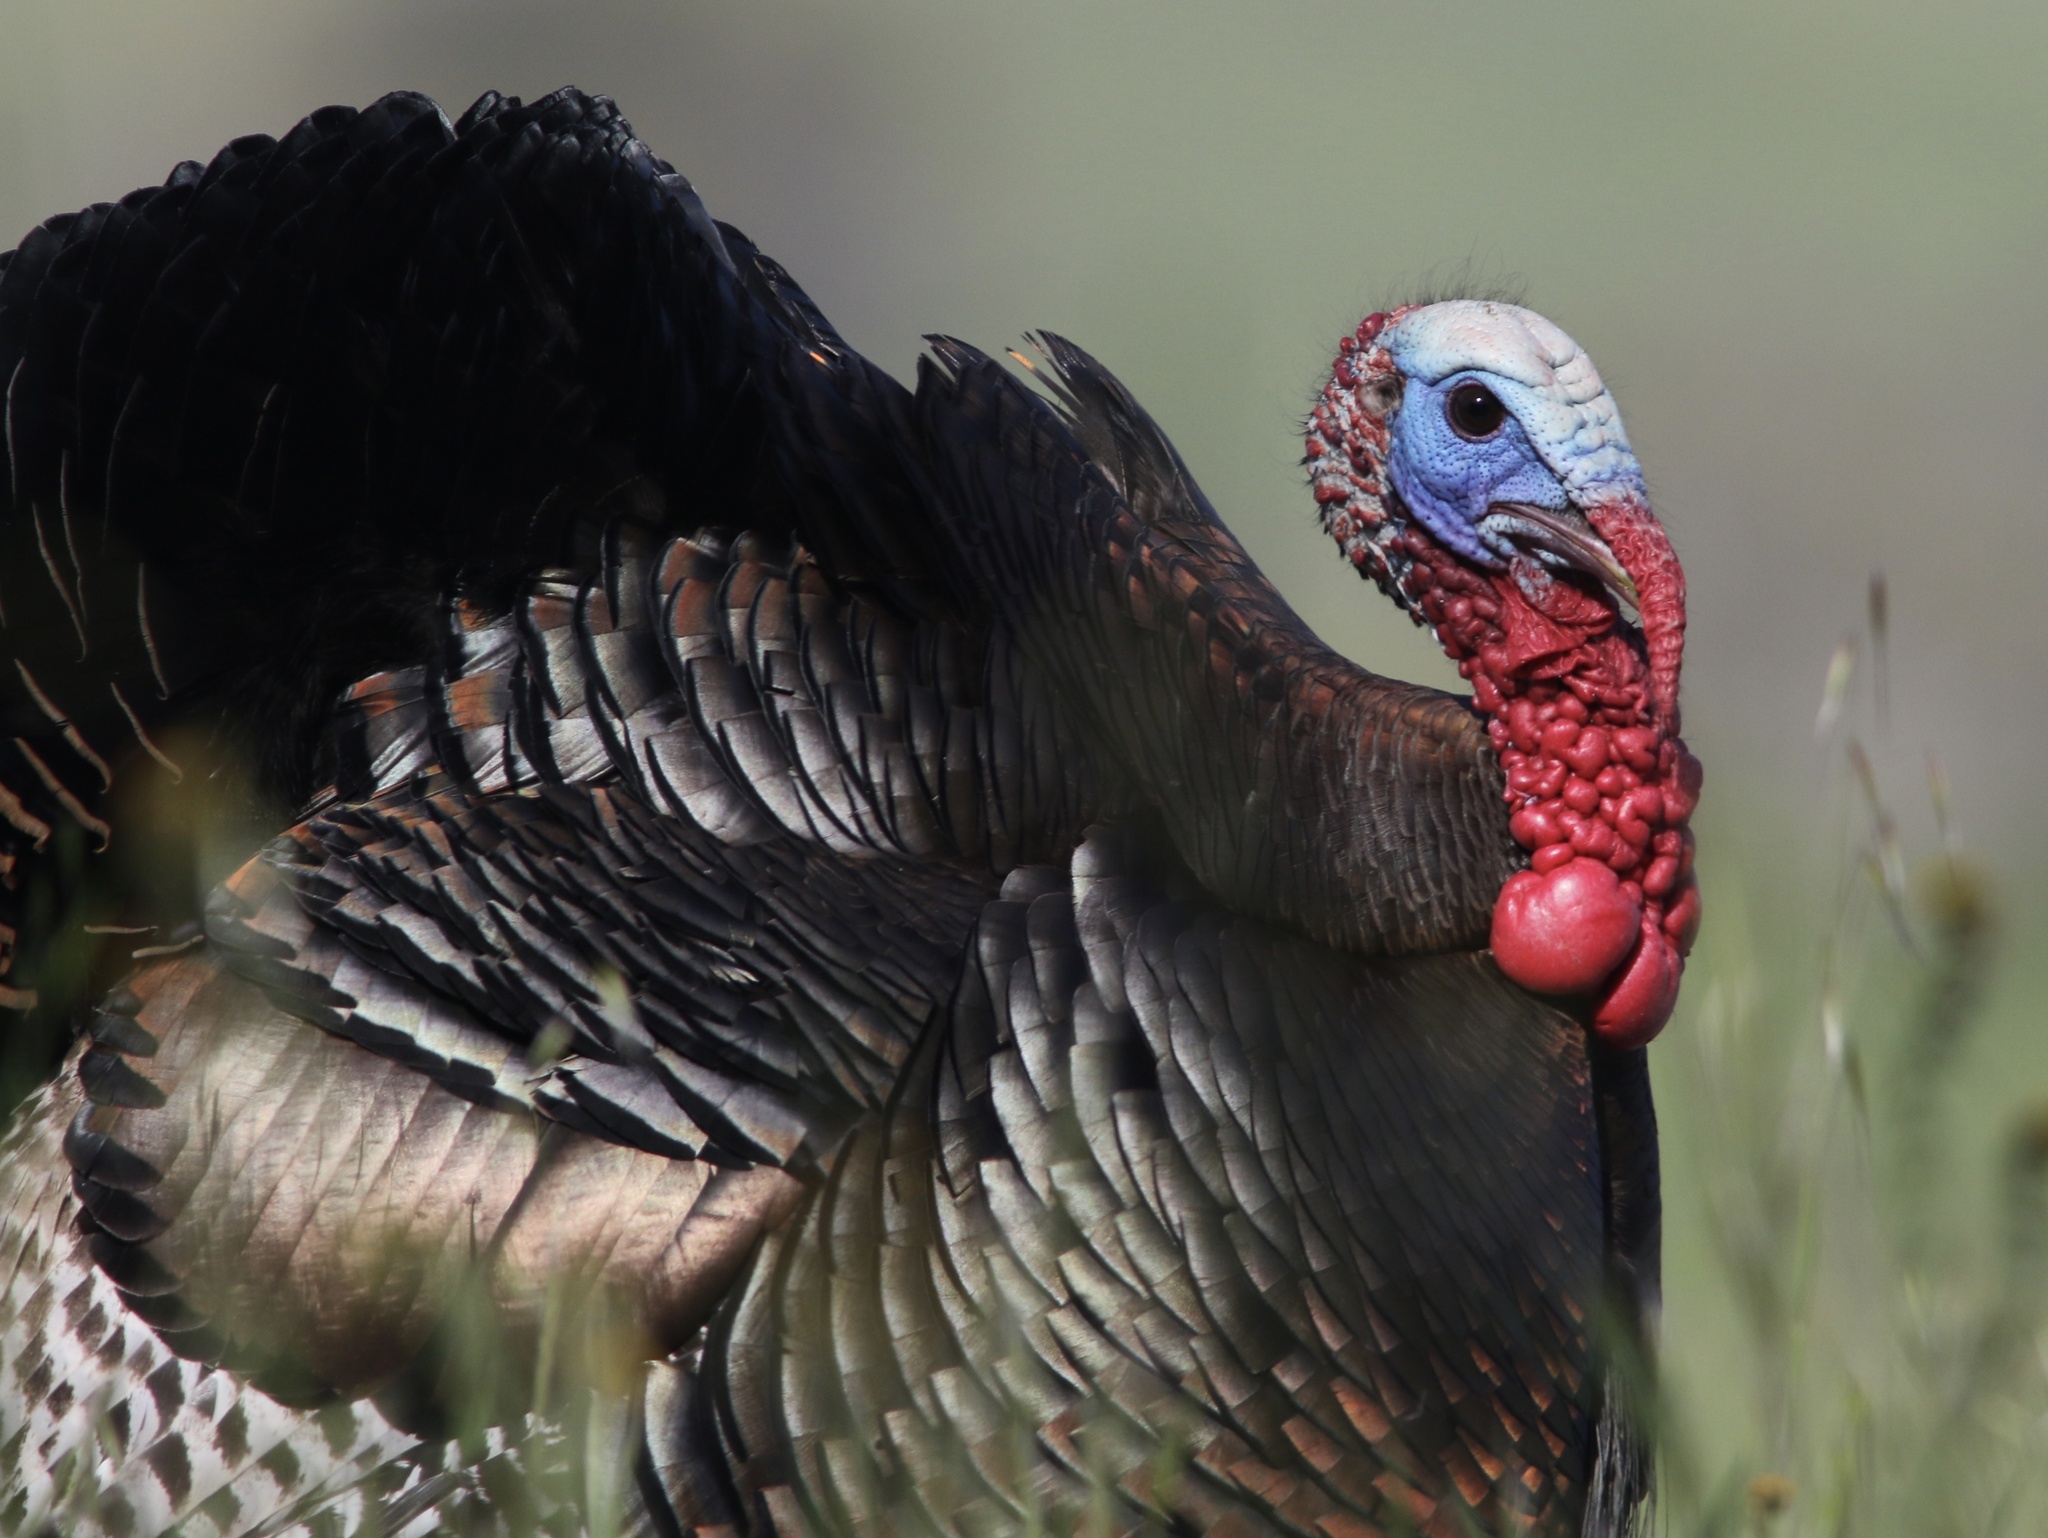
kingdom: Animalia
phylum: Chordata
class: Aves
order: Galliformes
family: Phasianidae
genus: Meleagris
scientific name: Meleagris gallopavo
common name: Wild turkey
